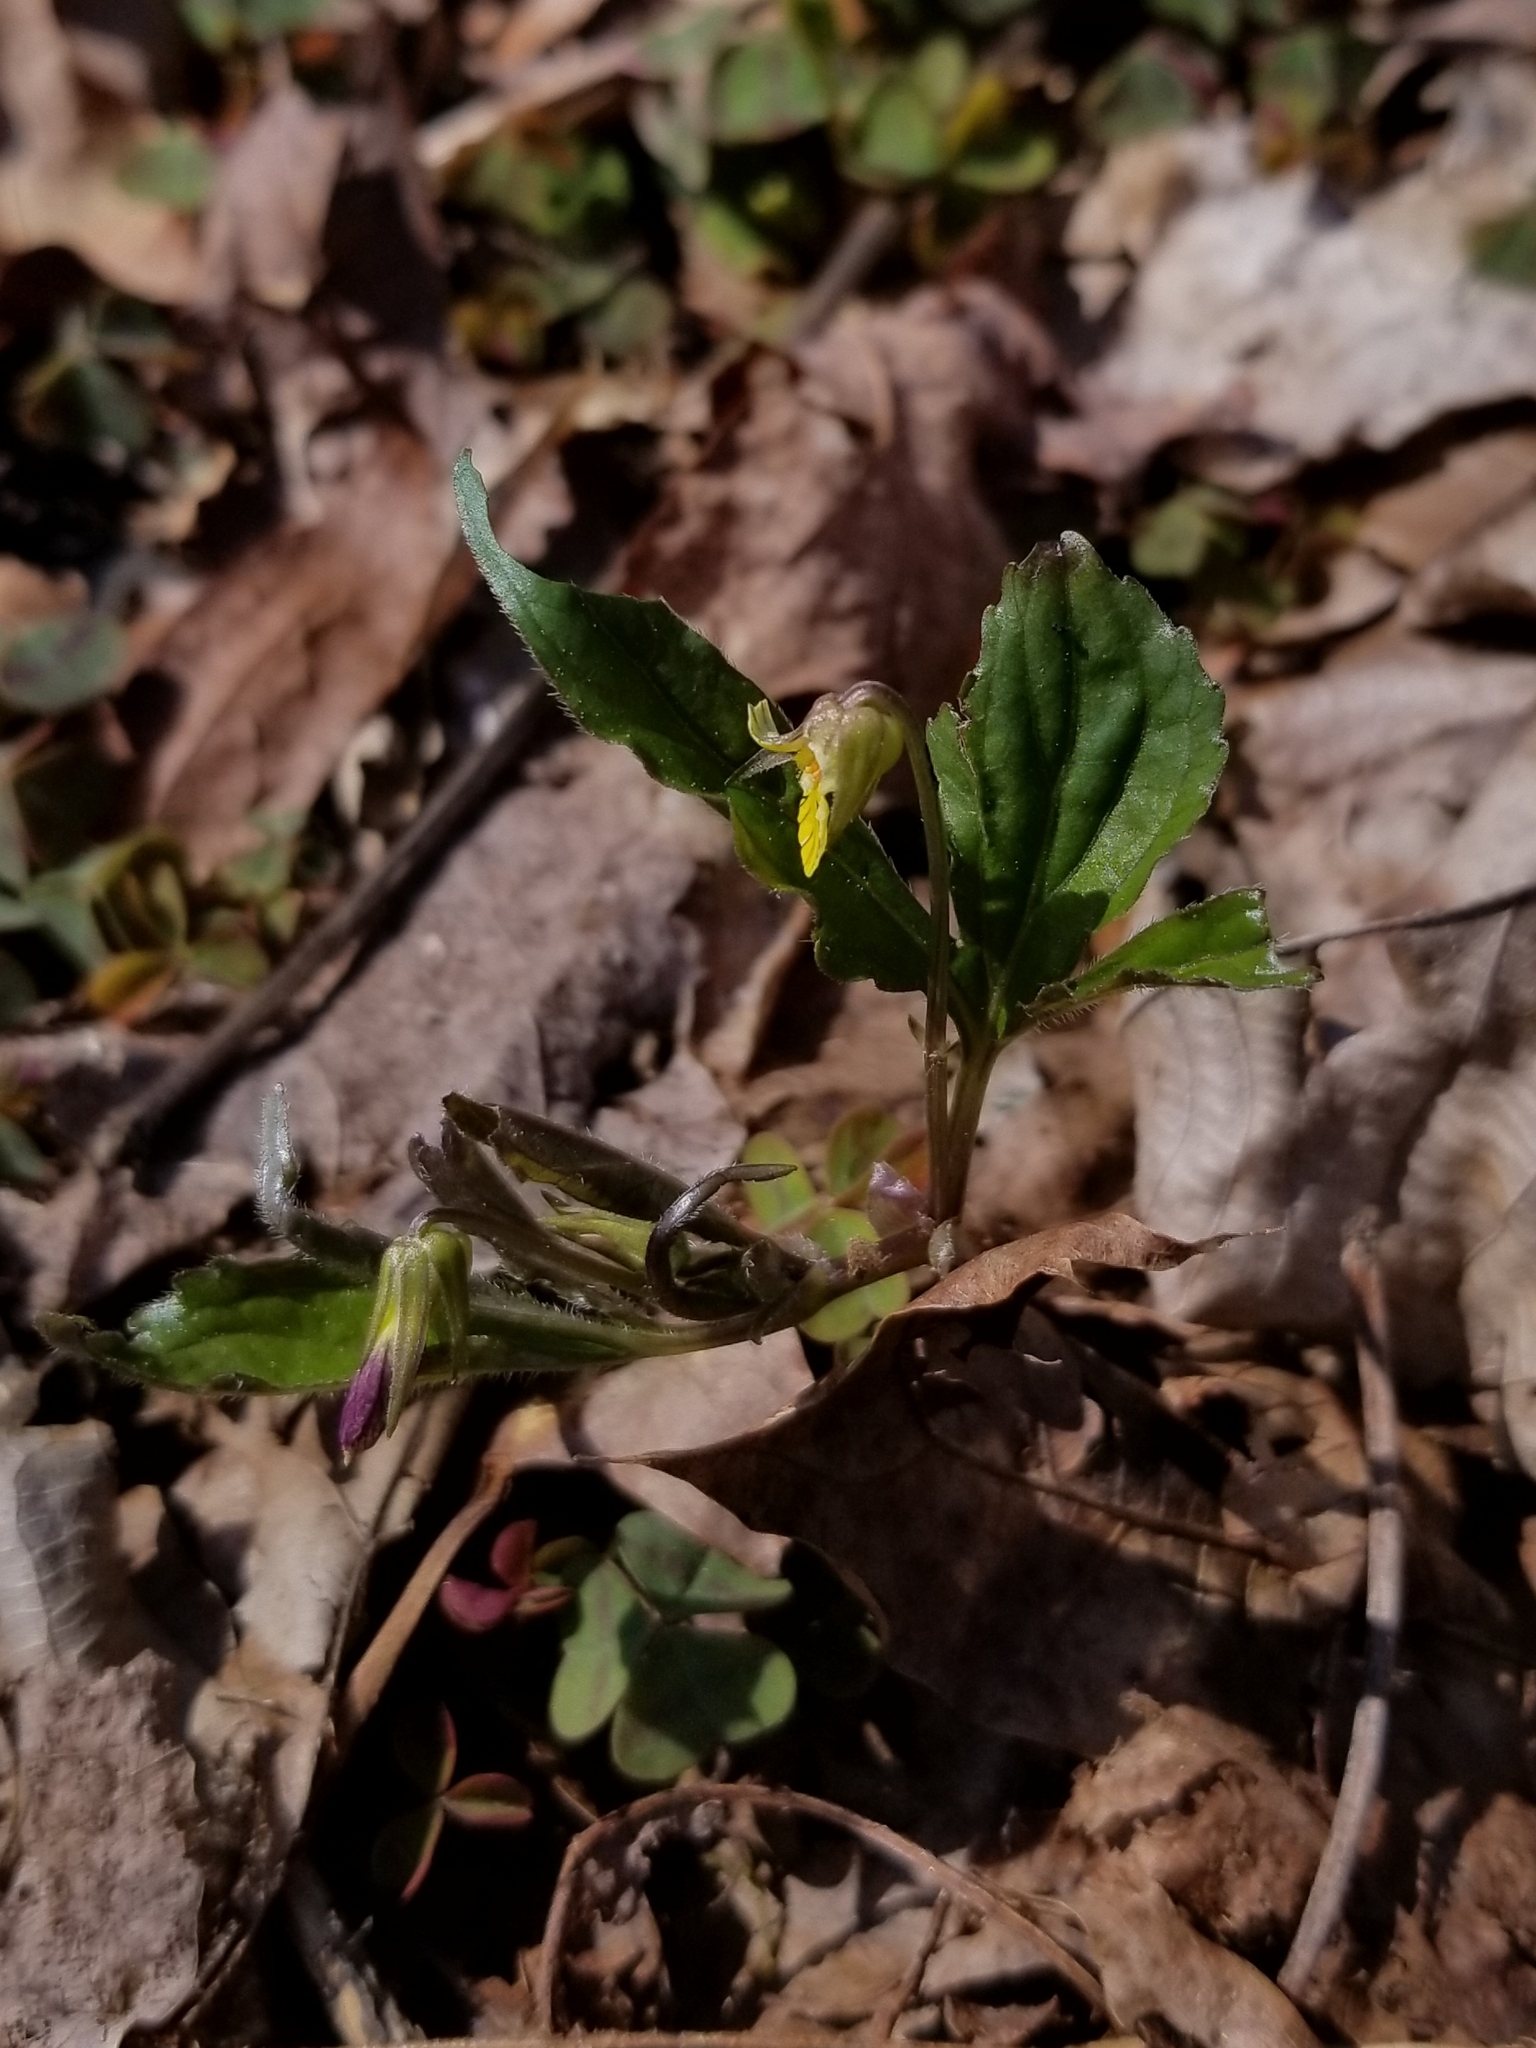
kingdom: Plantae
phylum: Tracheophyta
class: Magnoliopsida
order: Malpighiales
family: Violaceae
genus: Viola
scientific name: Viola tripartita
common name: Three-part violet
